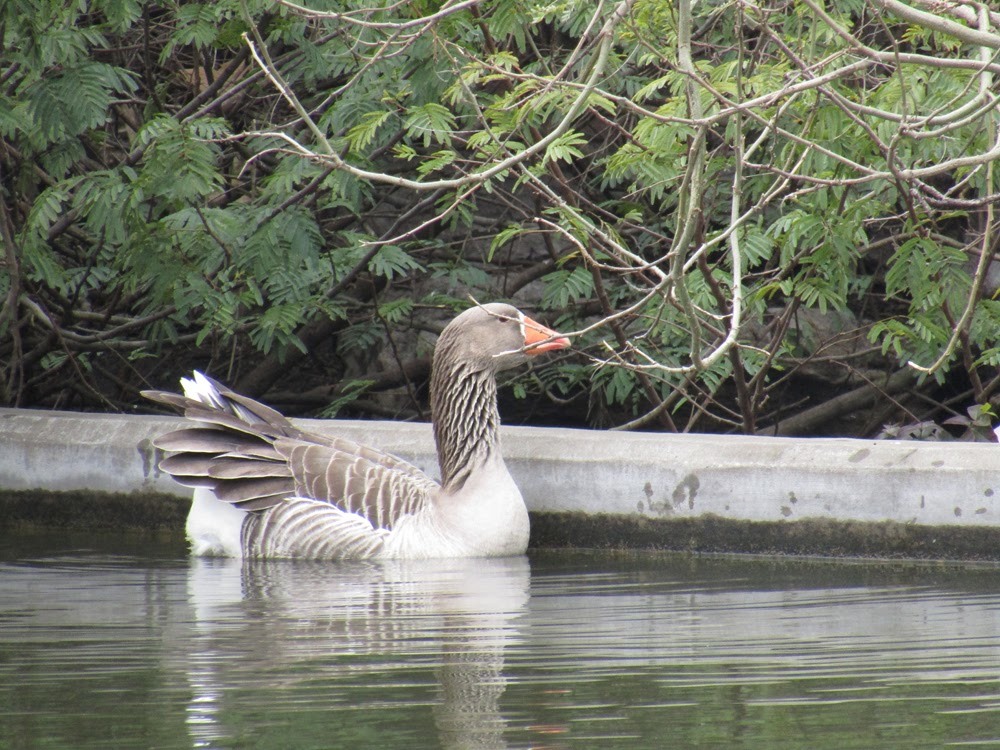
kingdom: Animalia
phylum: Chordata
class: Aves
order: Anseriformes
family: Anatidae
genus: Anser
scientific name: Anser anser
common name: Greylag goose
